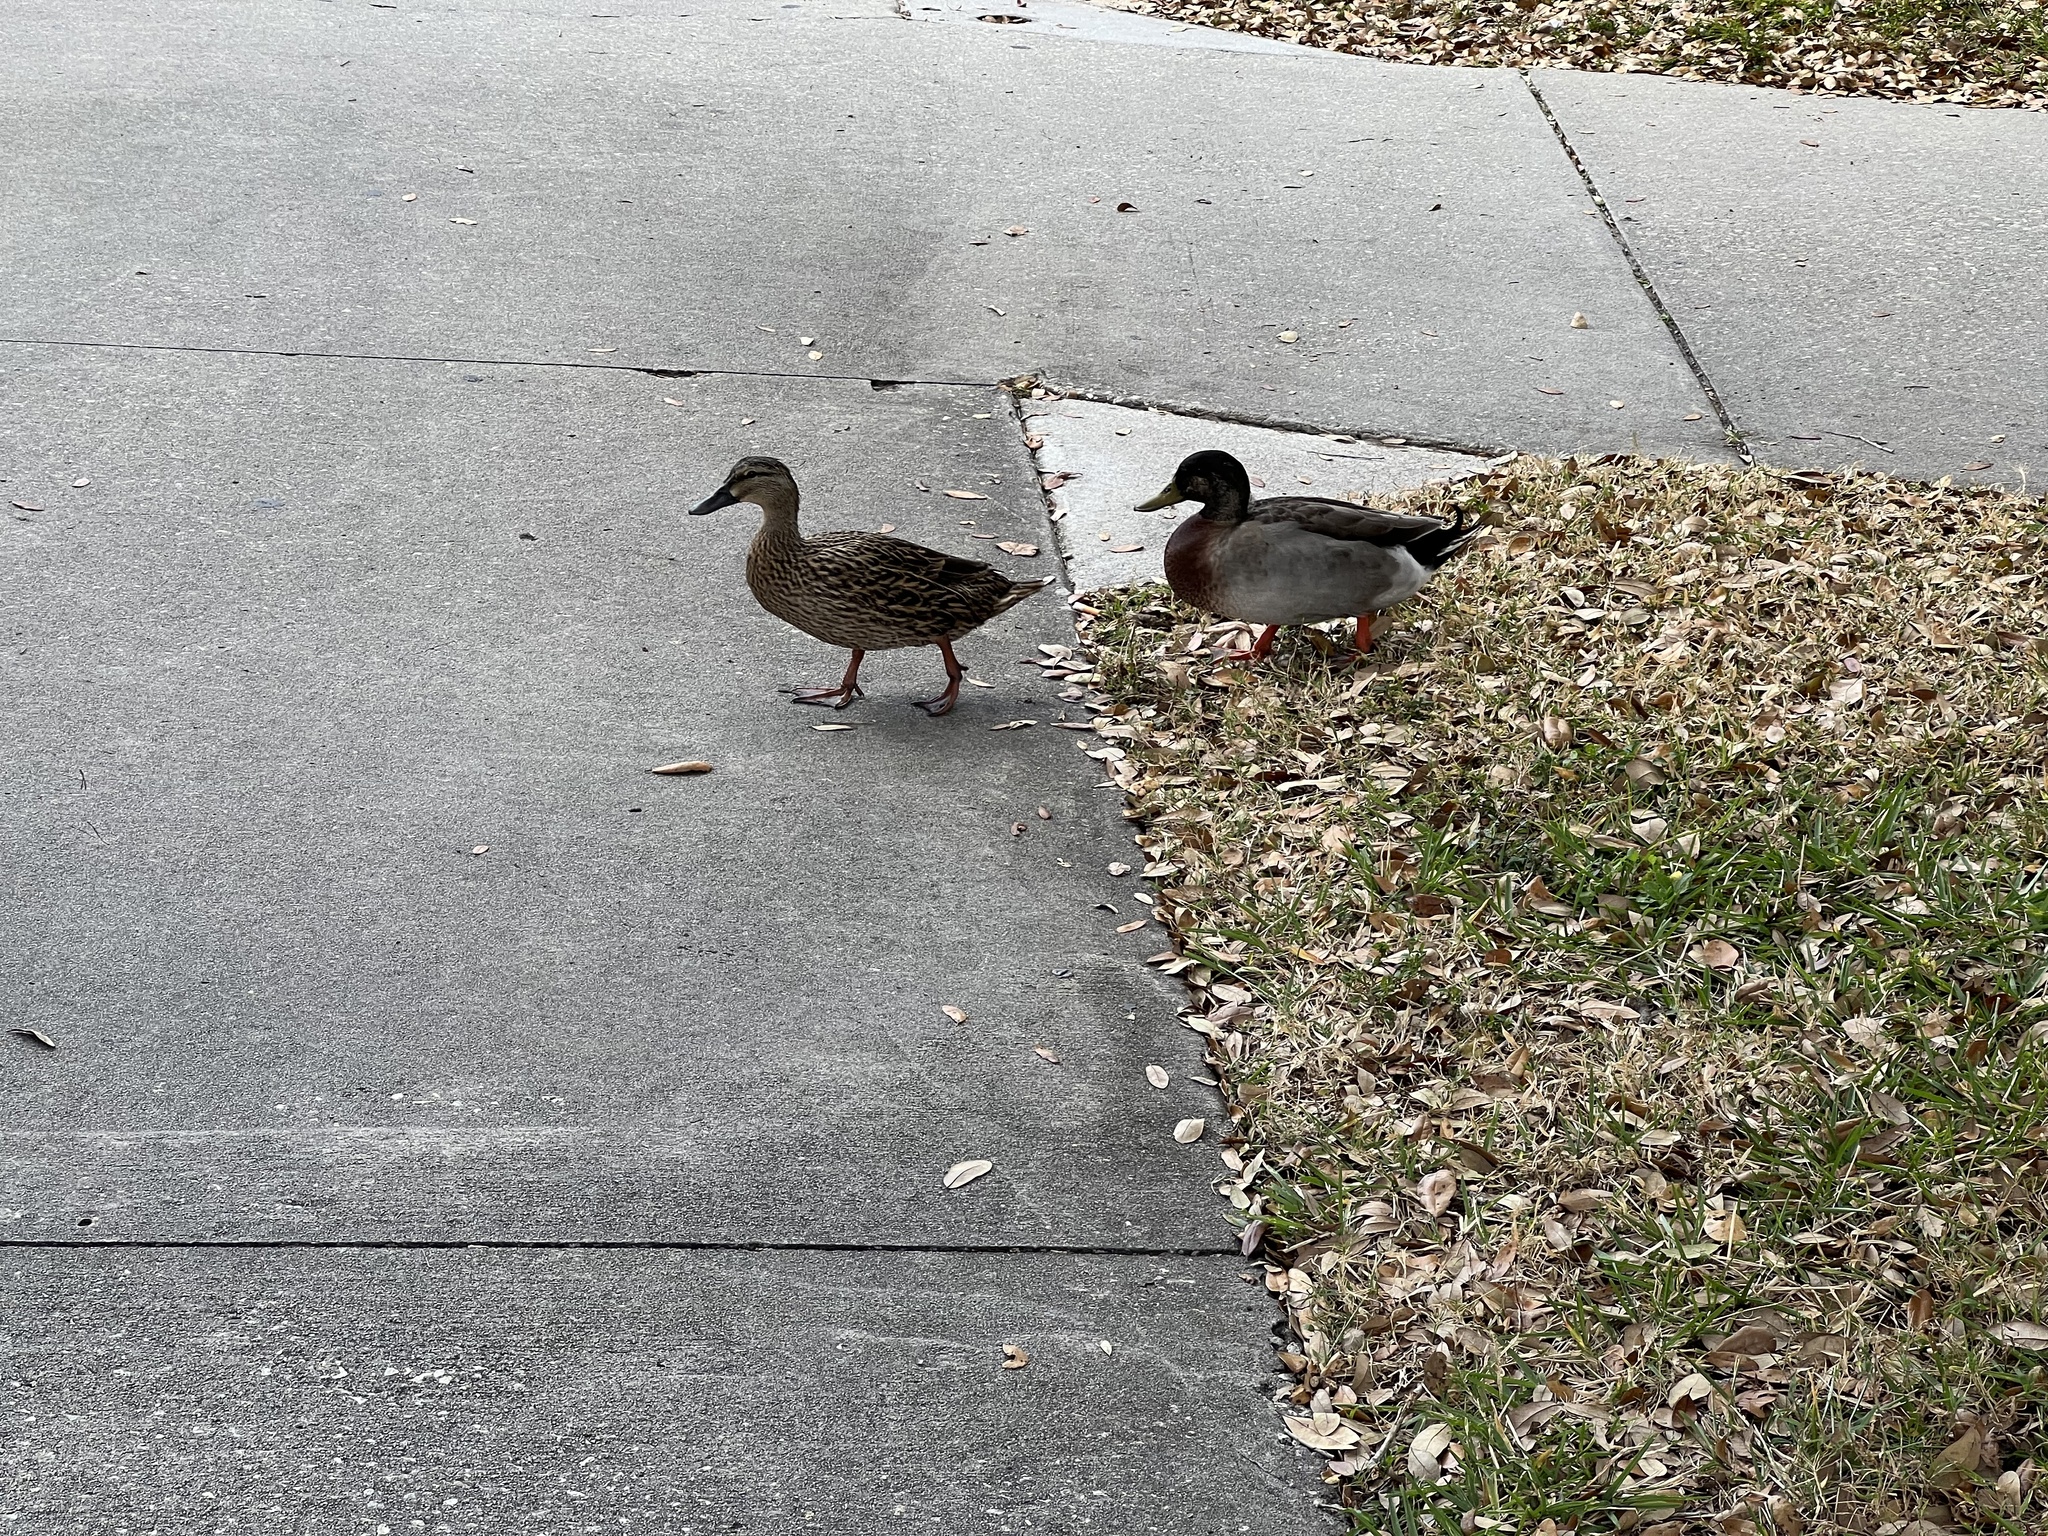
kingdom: Animalia
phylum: Chordata
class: Aves
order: Anseriformes
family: Anatidae
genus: Anas
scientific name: Anas platyrhynchos
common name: Mallard
